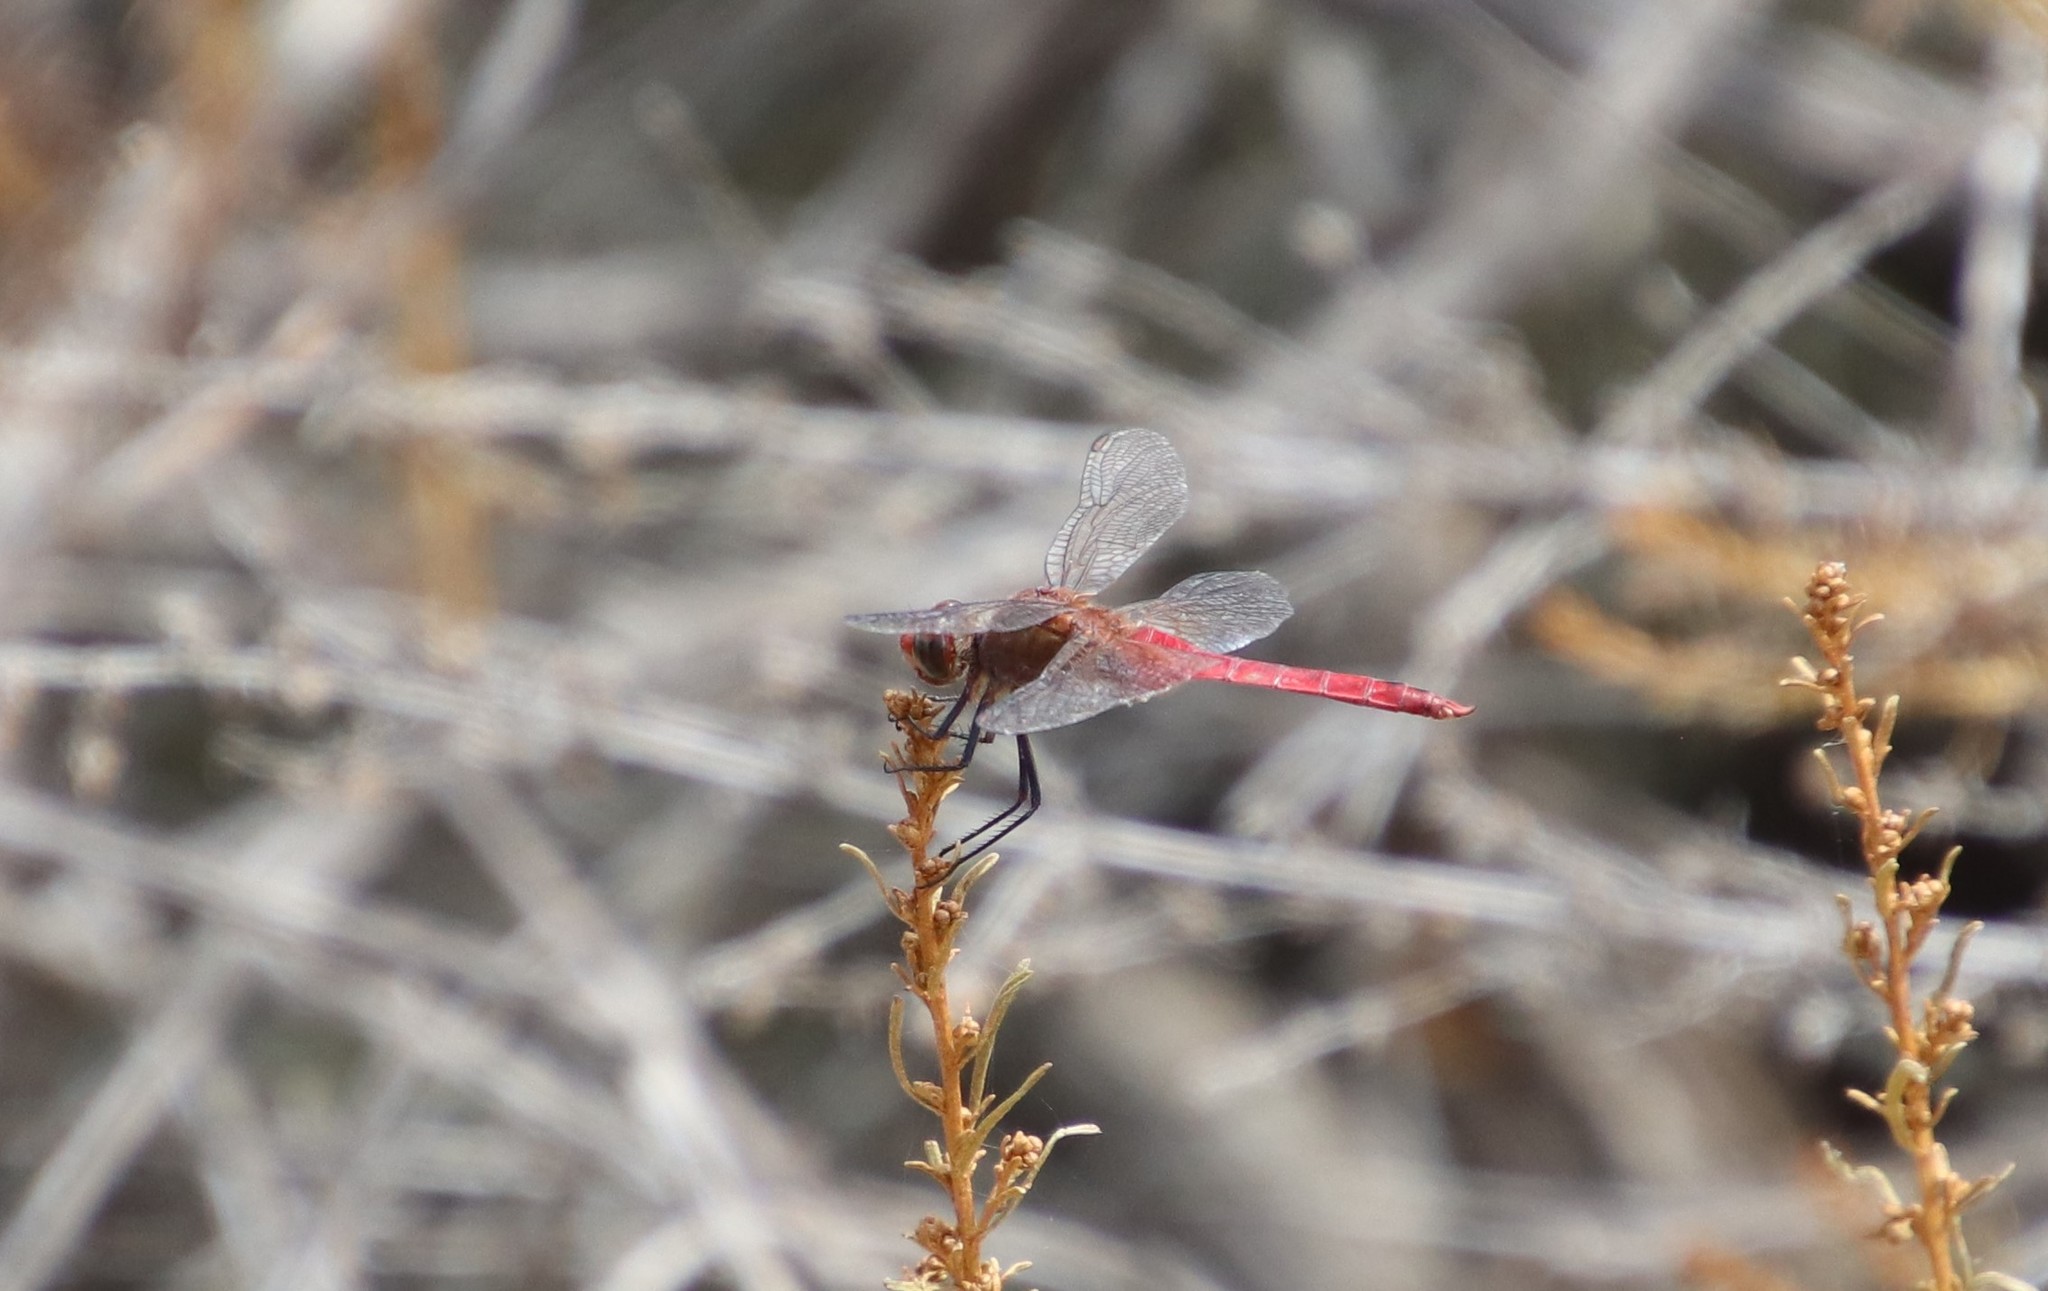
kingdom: Animalia
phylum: Arthropoda
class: Insecta
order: Odonata
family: Libellulidae
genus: Brachymesia
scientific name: Brachymesia furcata
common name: Red-taled pennant
